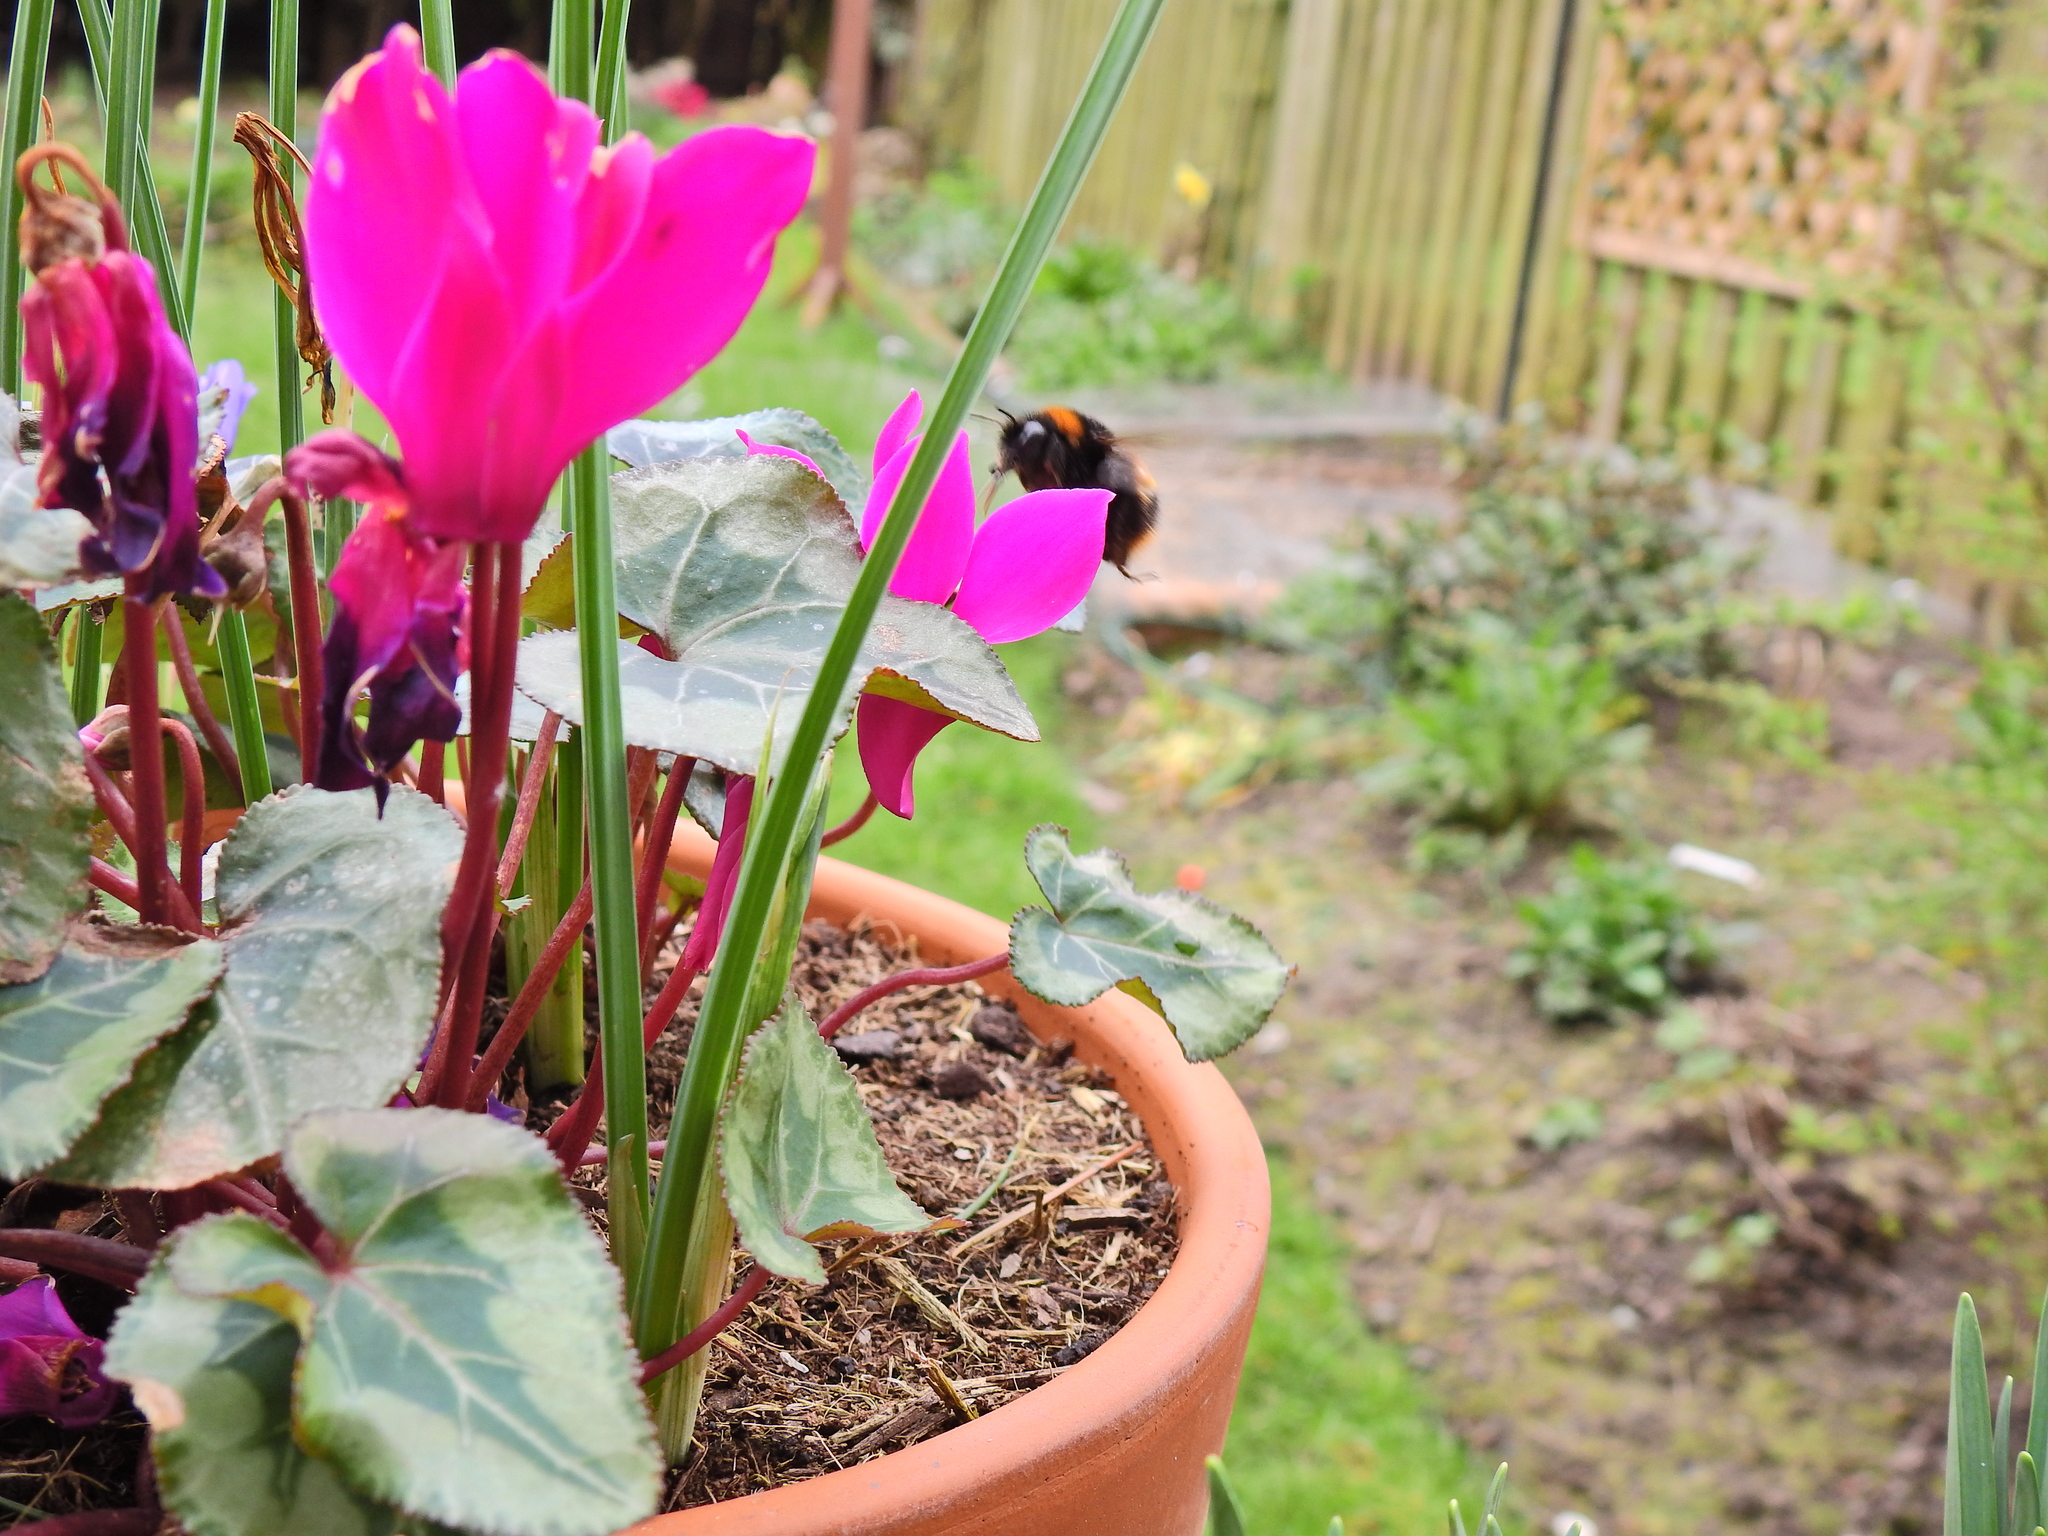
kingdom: Animalia
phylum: Arthropoda
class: Insecta
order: Hymenoptera
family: Apidae
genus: Bombus
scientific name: Bombus terrestris
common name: Buff-tailed bumblebee
